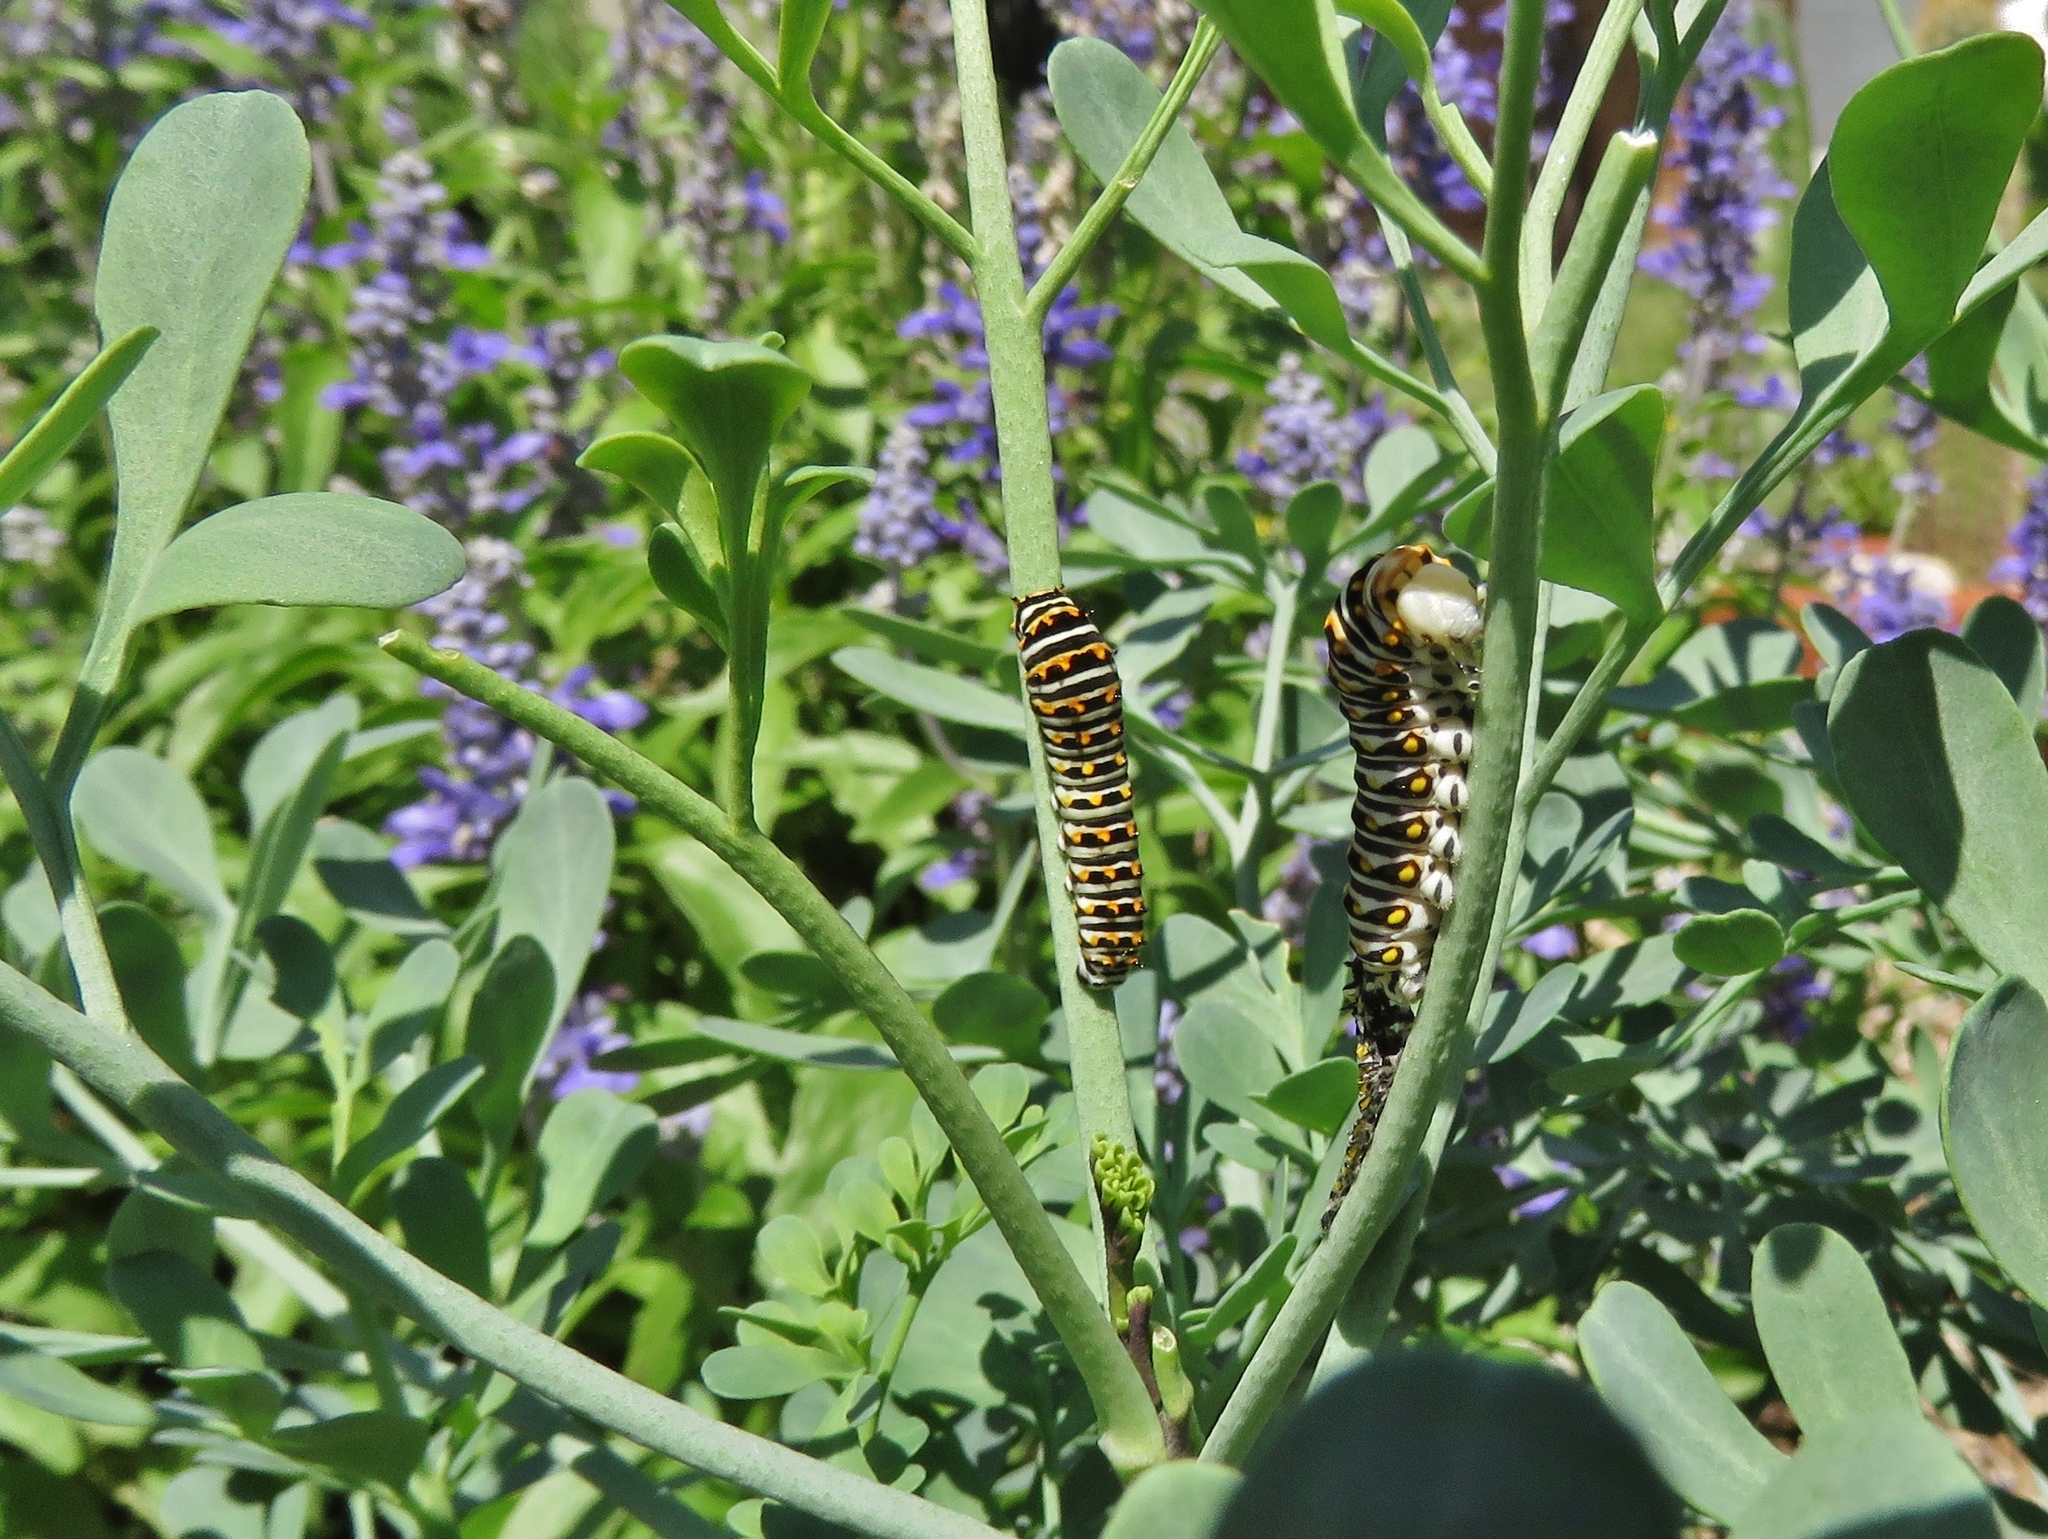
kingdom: Animalia
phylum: Arthropoda
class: Insecta
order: Lepidoptera
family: Papilionidae
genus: Papilio
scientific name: Papilio polyxenes
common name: Black swallowtail
